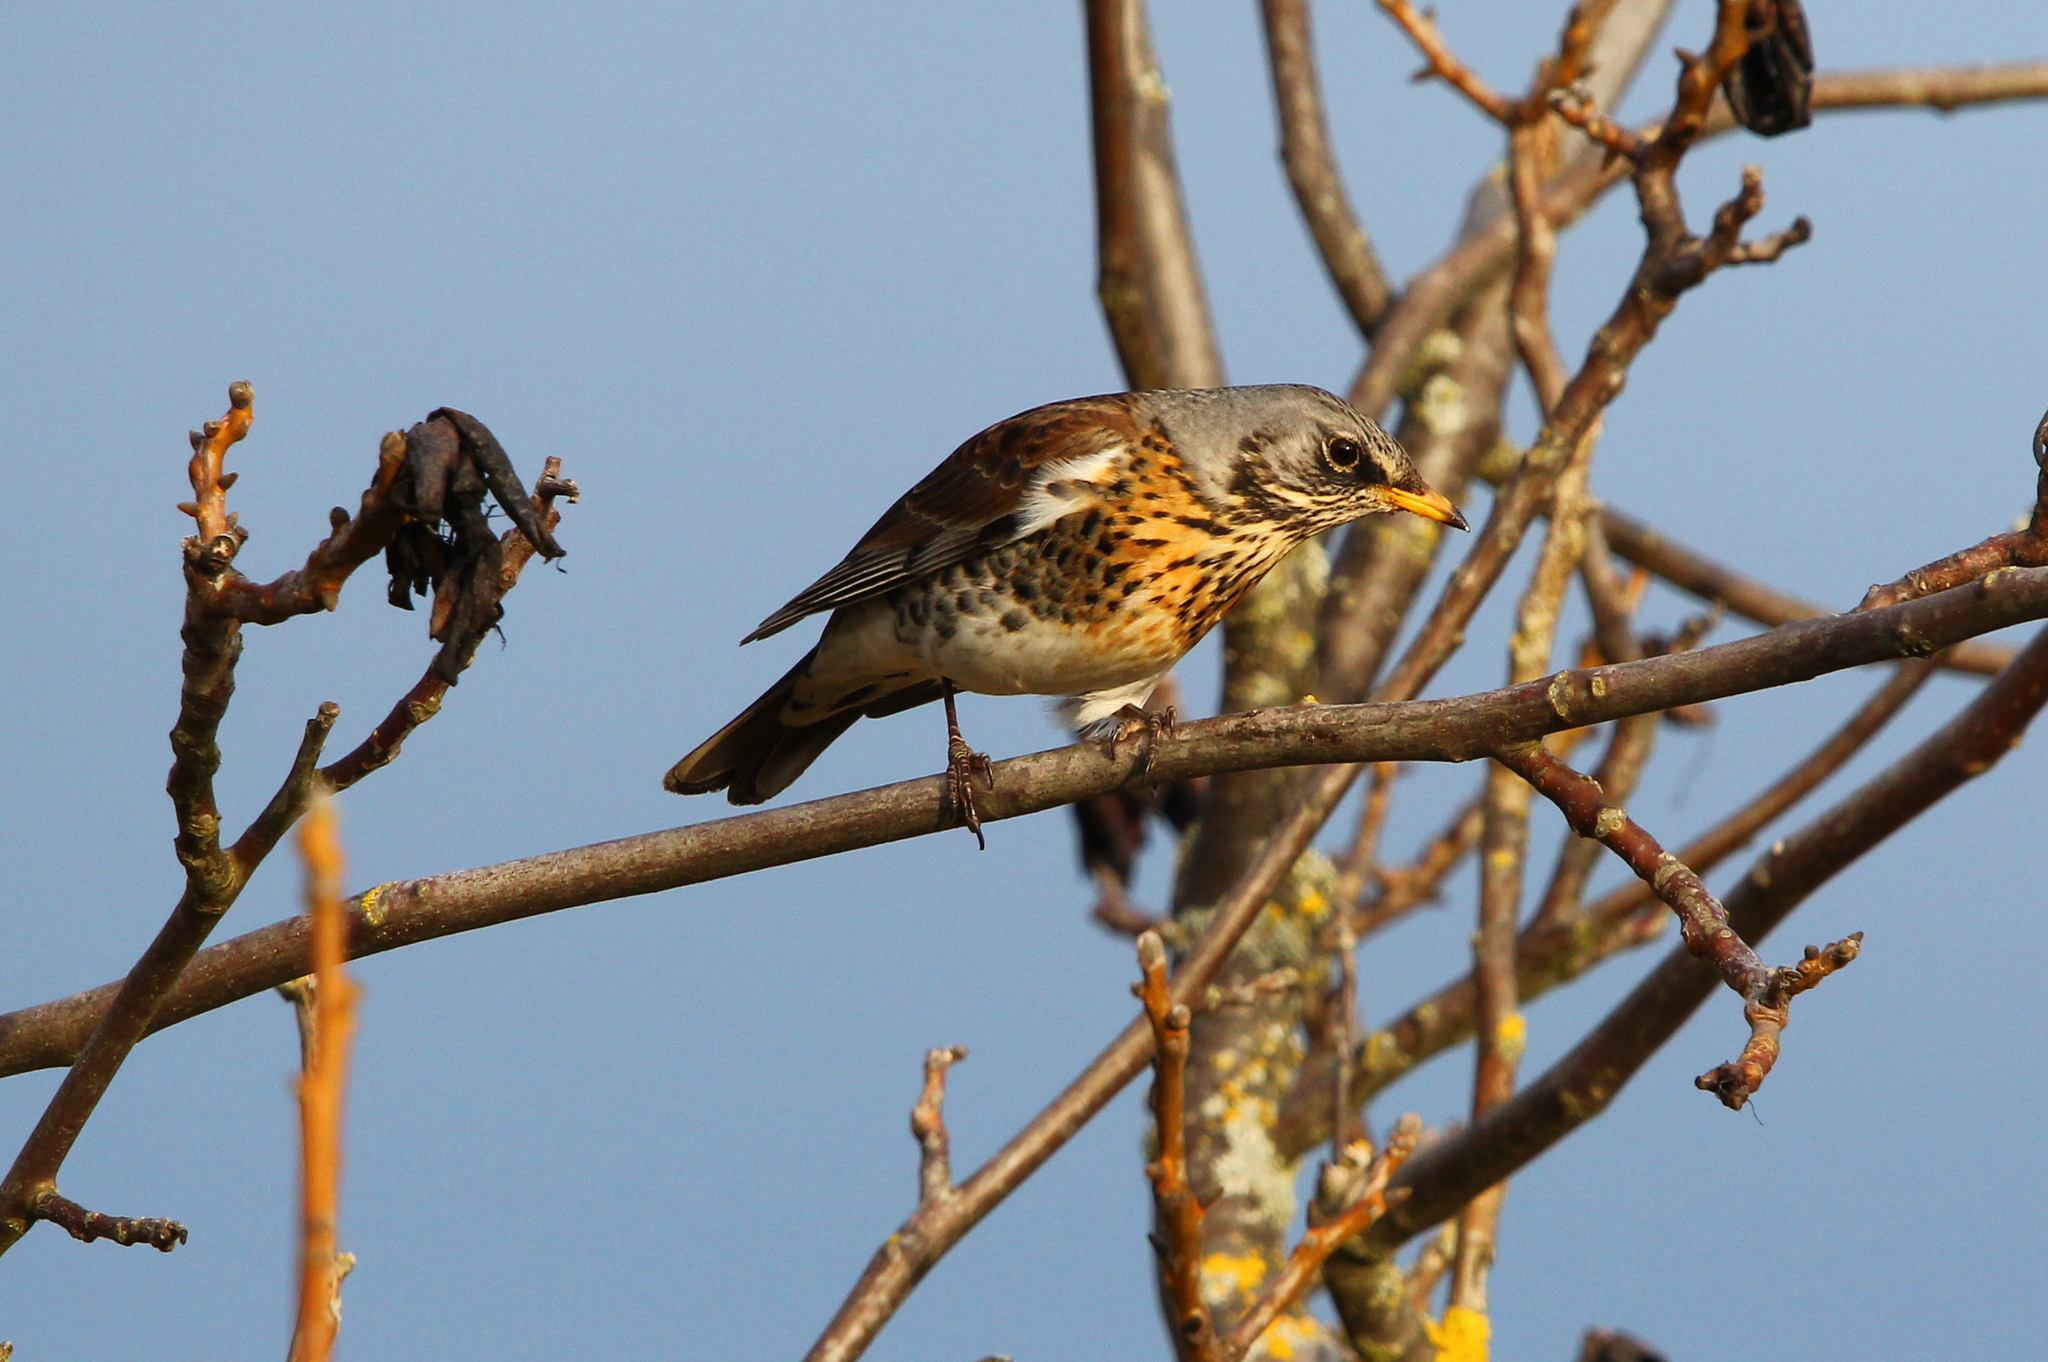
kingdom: Animalia
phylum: Chordata
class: Aves
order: Passeriformes
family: Turdidae
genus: Turdus
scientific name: Turdus pilaris
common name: Fieldfare
